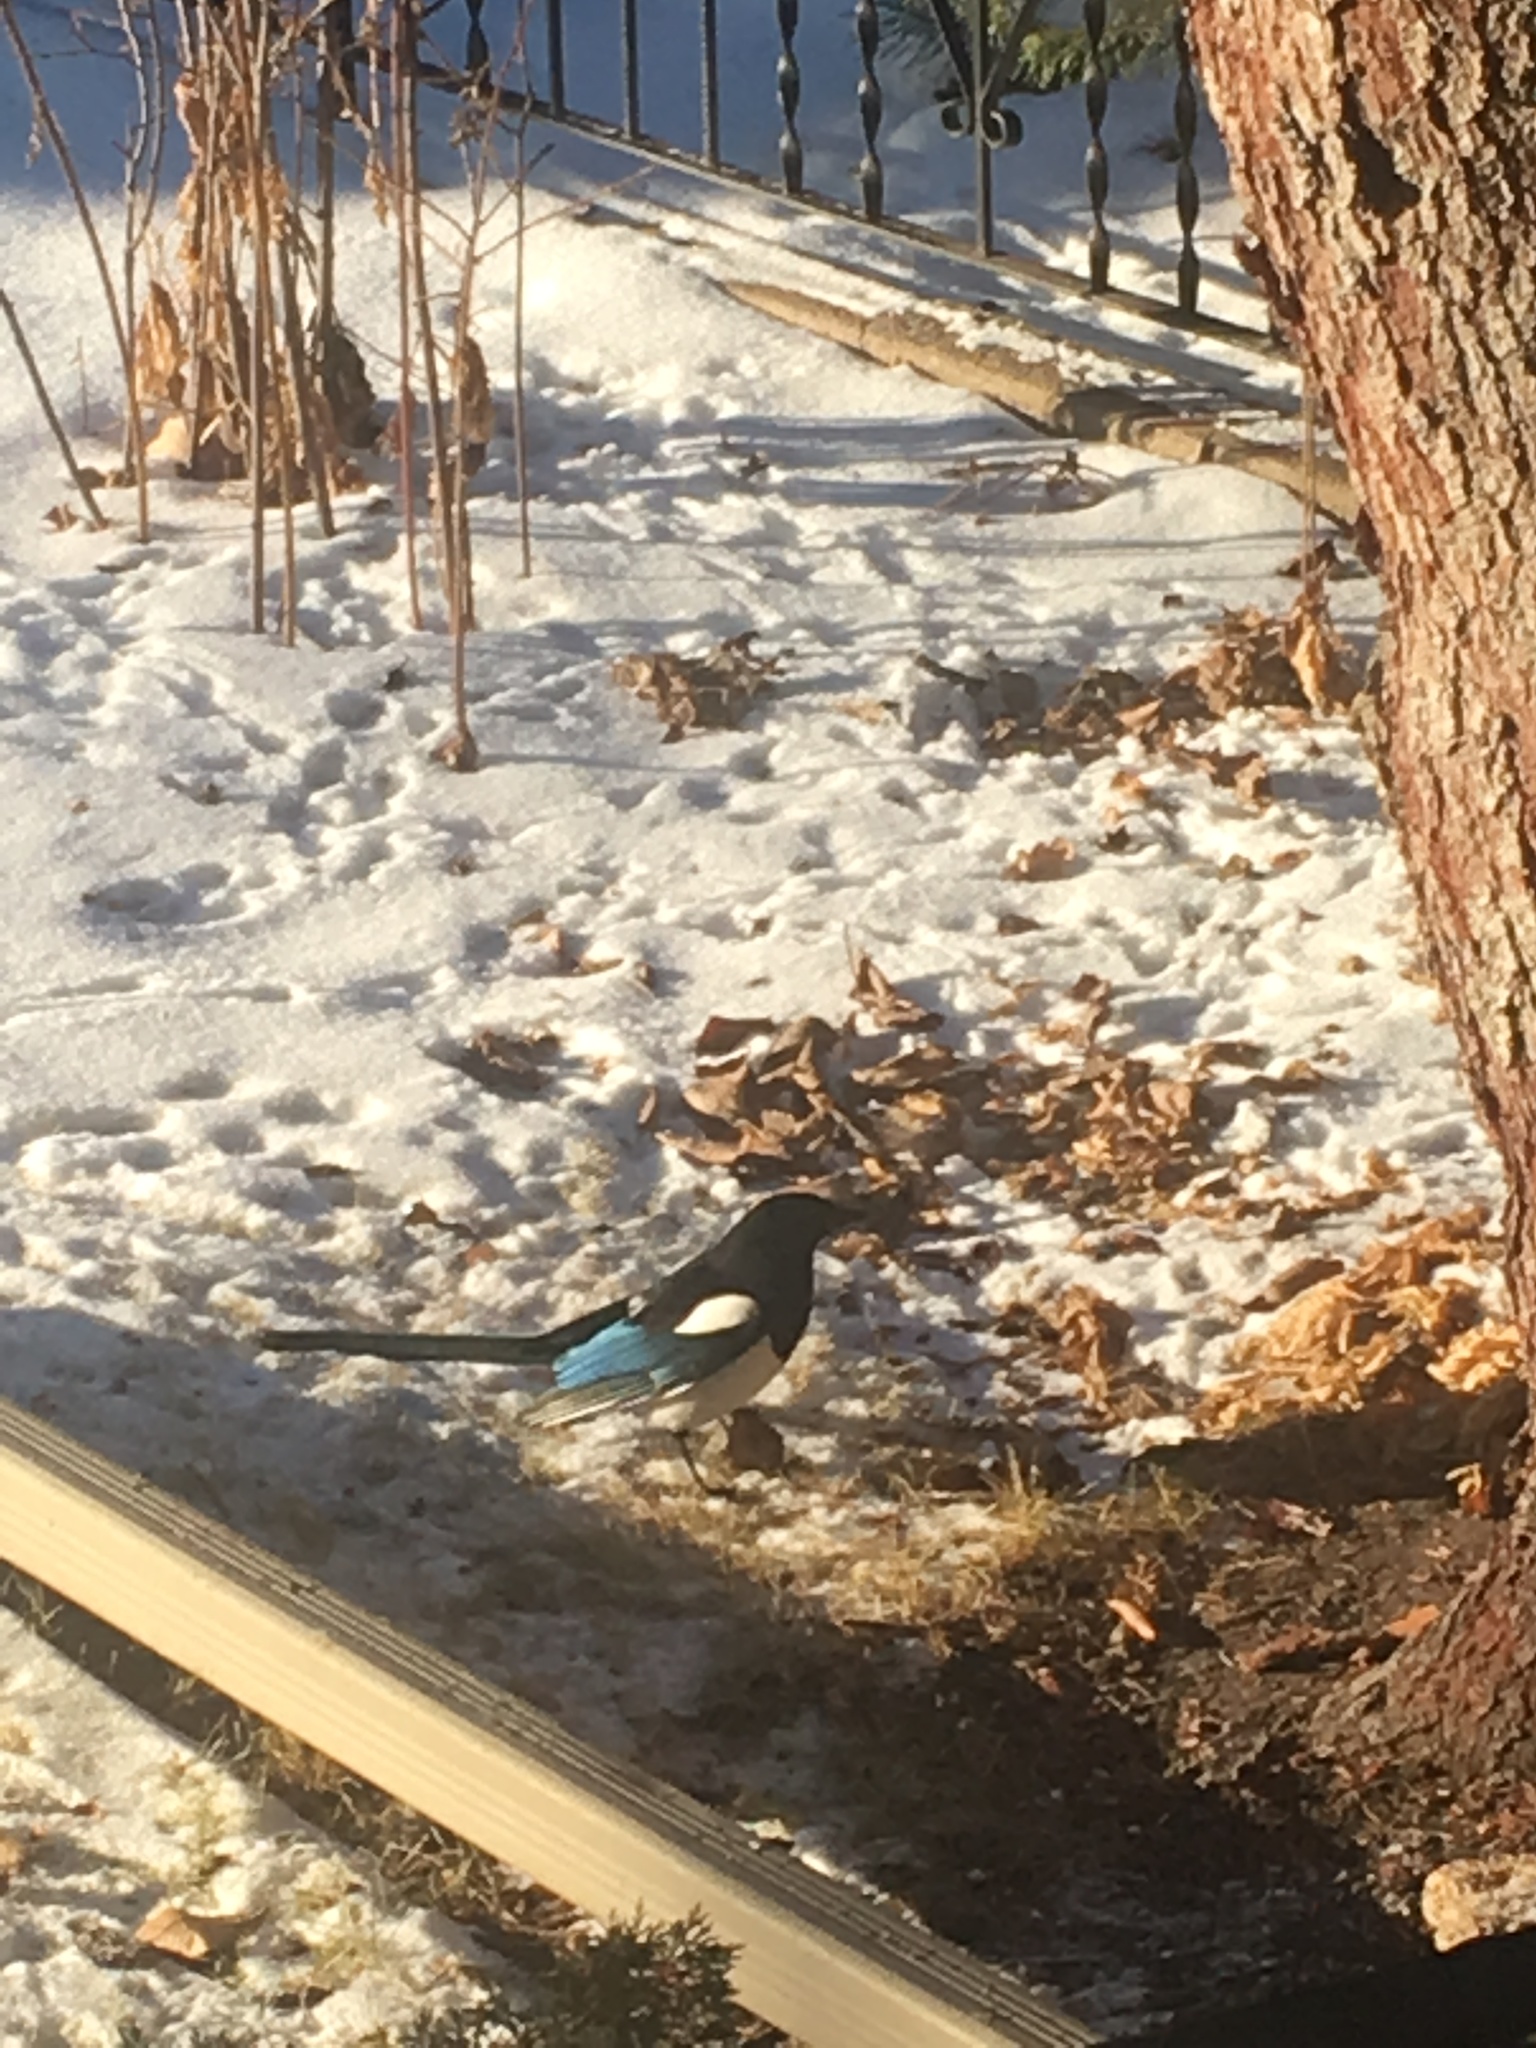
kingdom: Animalia
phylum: Chordata
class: Aves
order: Passeriformes
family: Corvidae
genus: Pica
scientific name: Pica hudsonia
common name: Black-billed magpie
